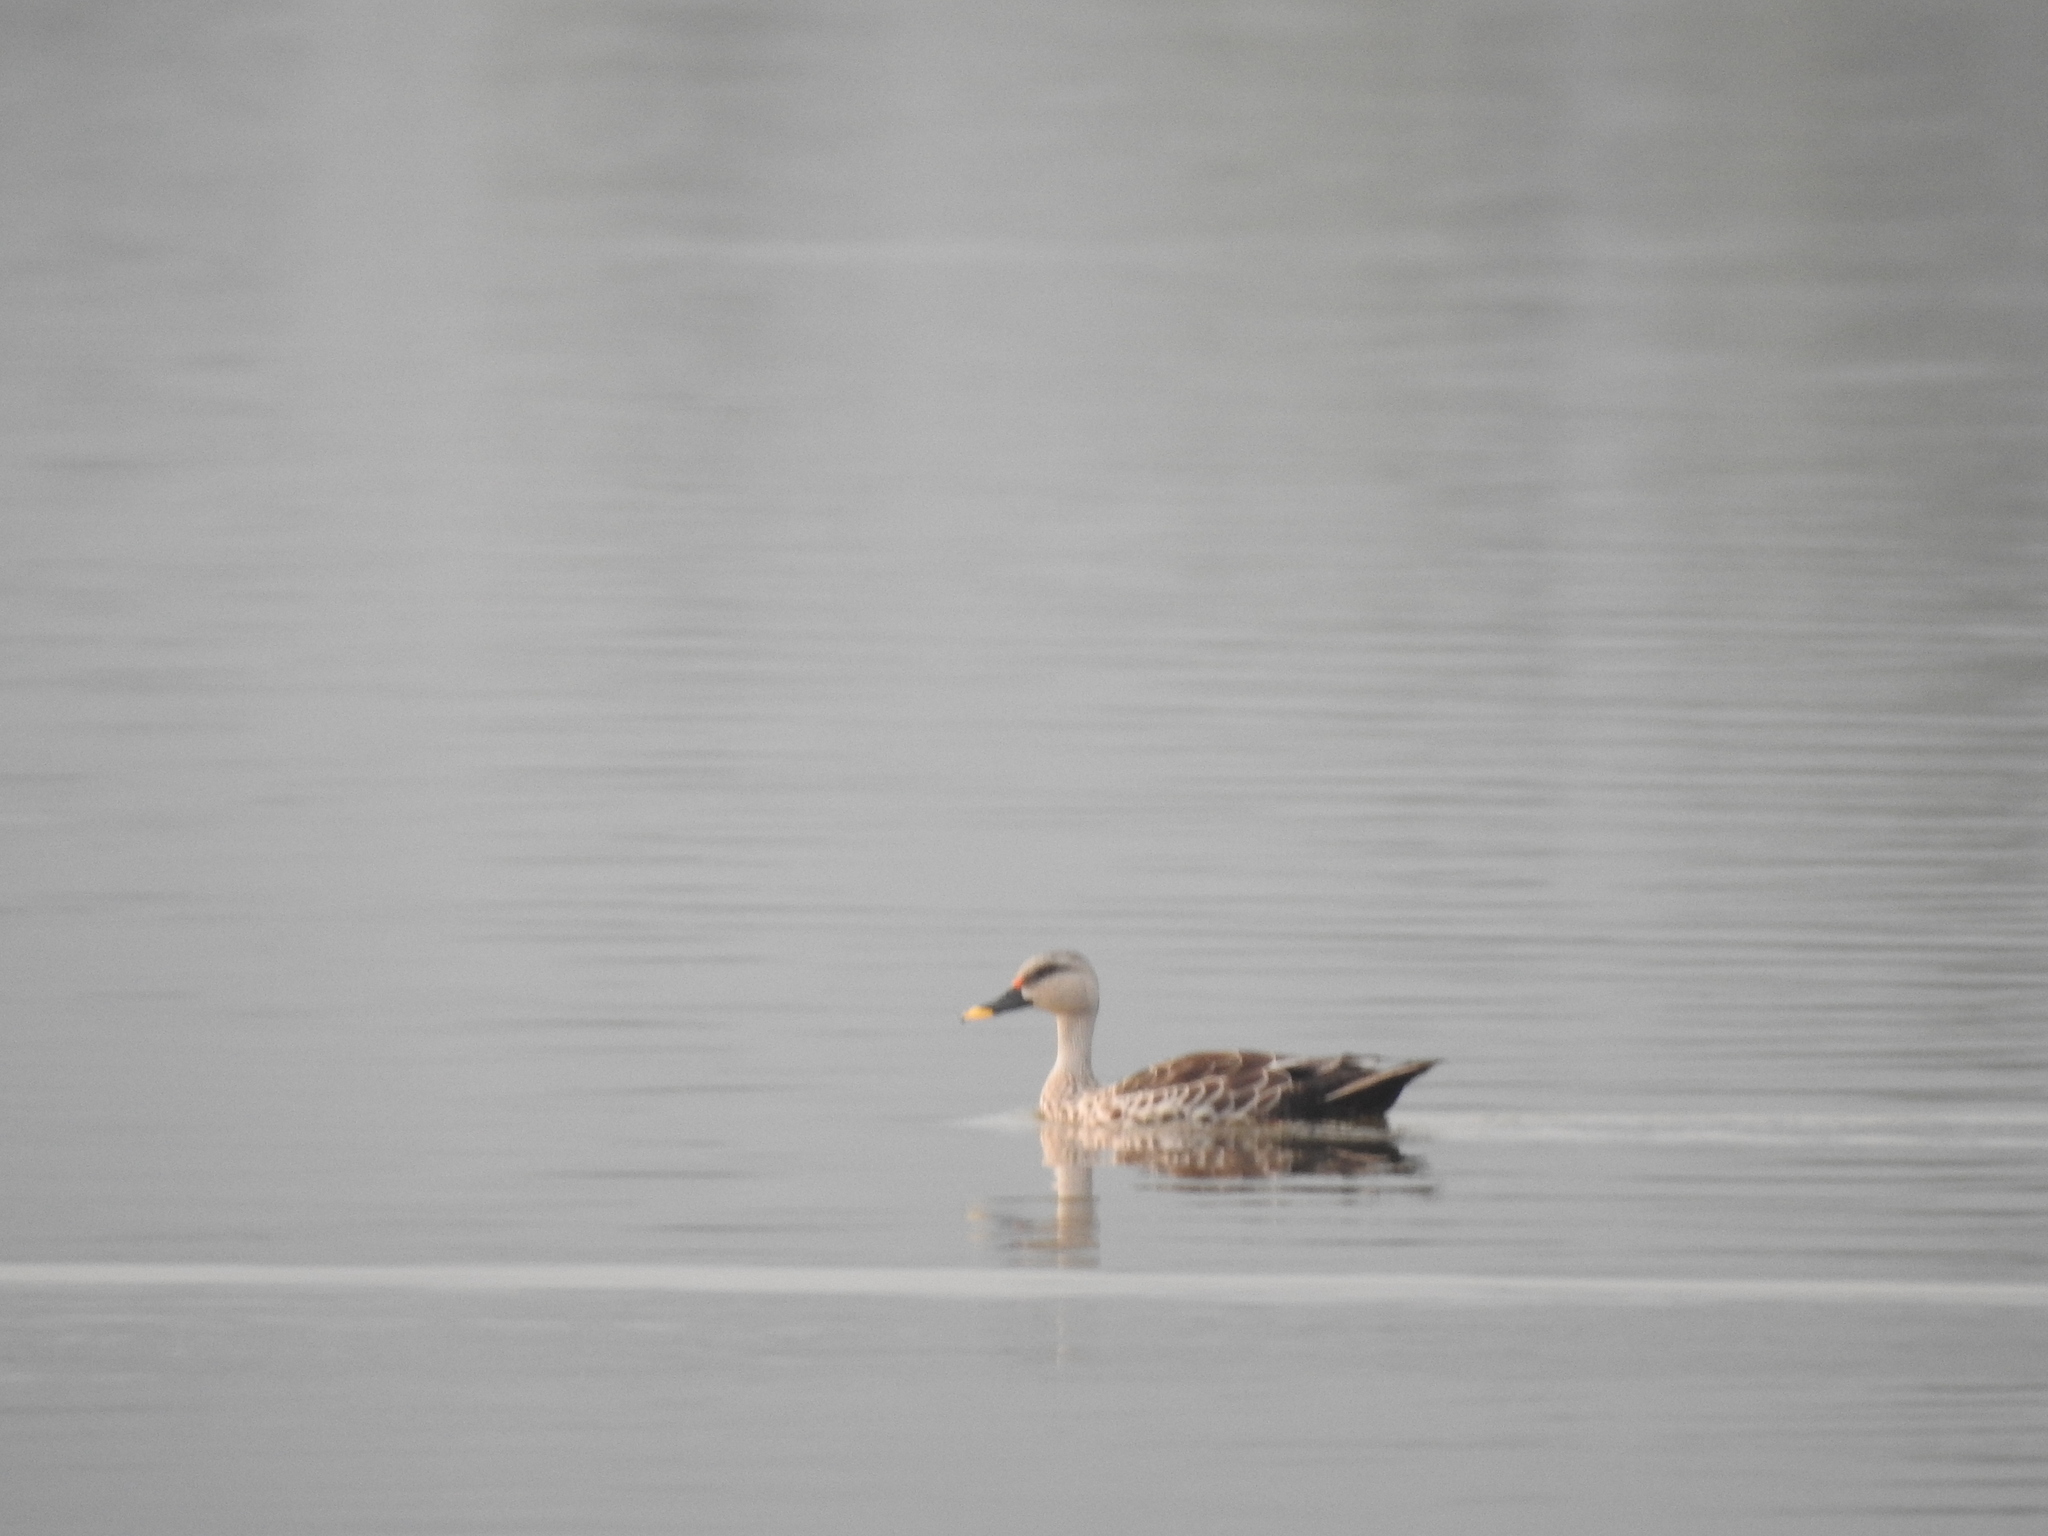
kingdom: Animalia
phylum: Chordata
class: Aves
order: Anseriformes
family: Anatidae
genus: Anas
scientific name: Anas poecilorhyncha
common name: Indian spot-billed duck
